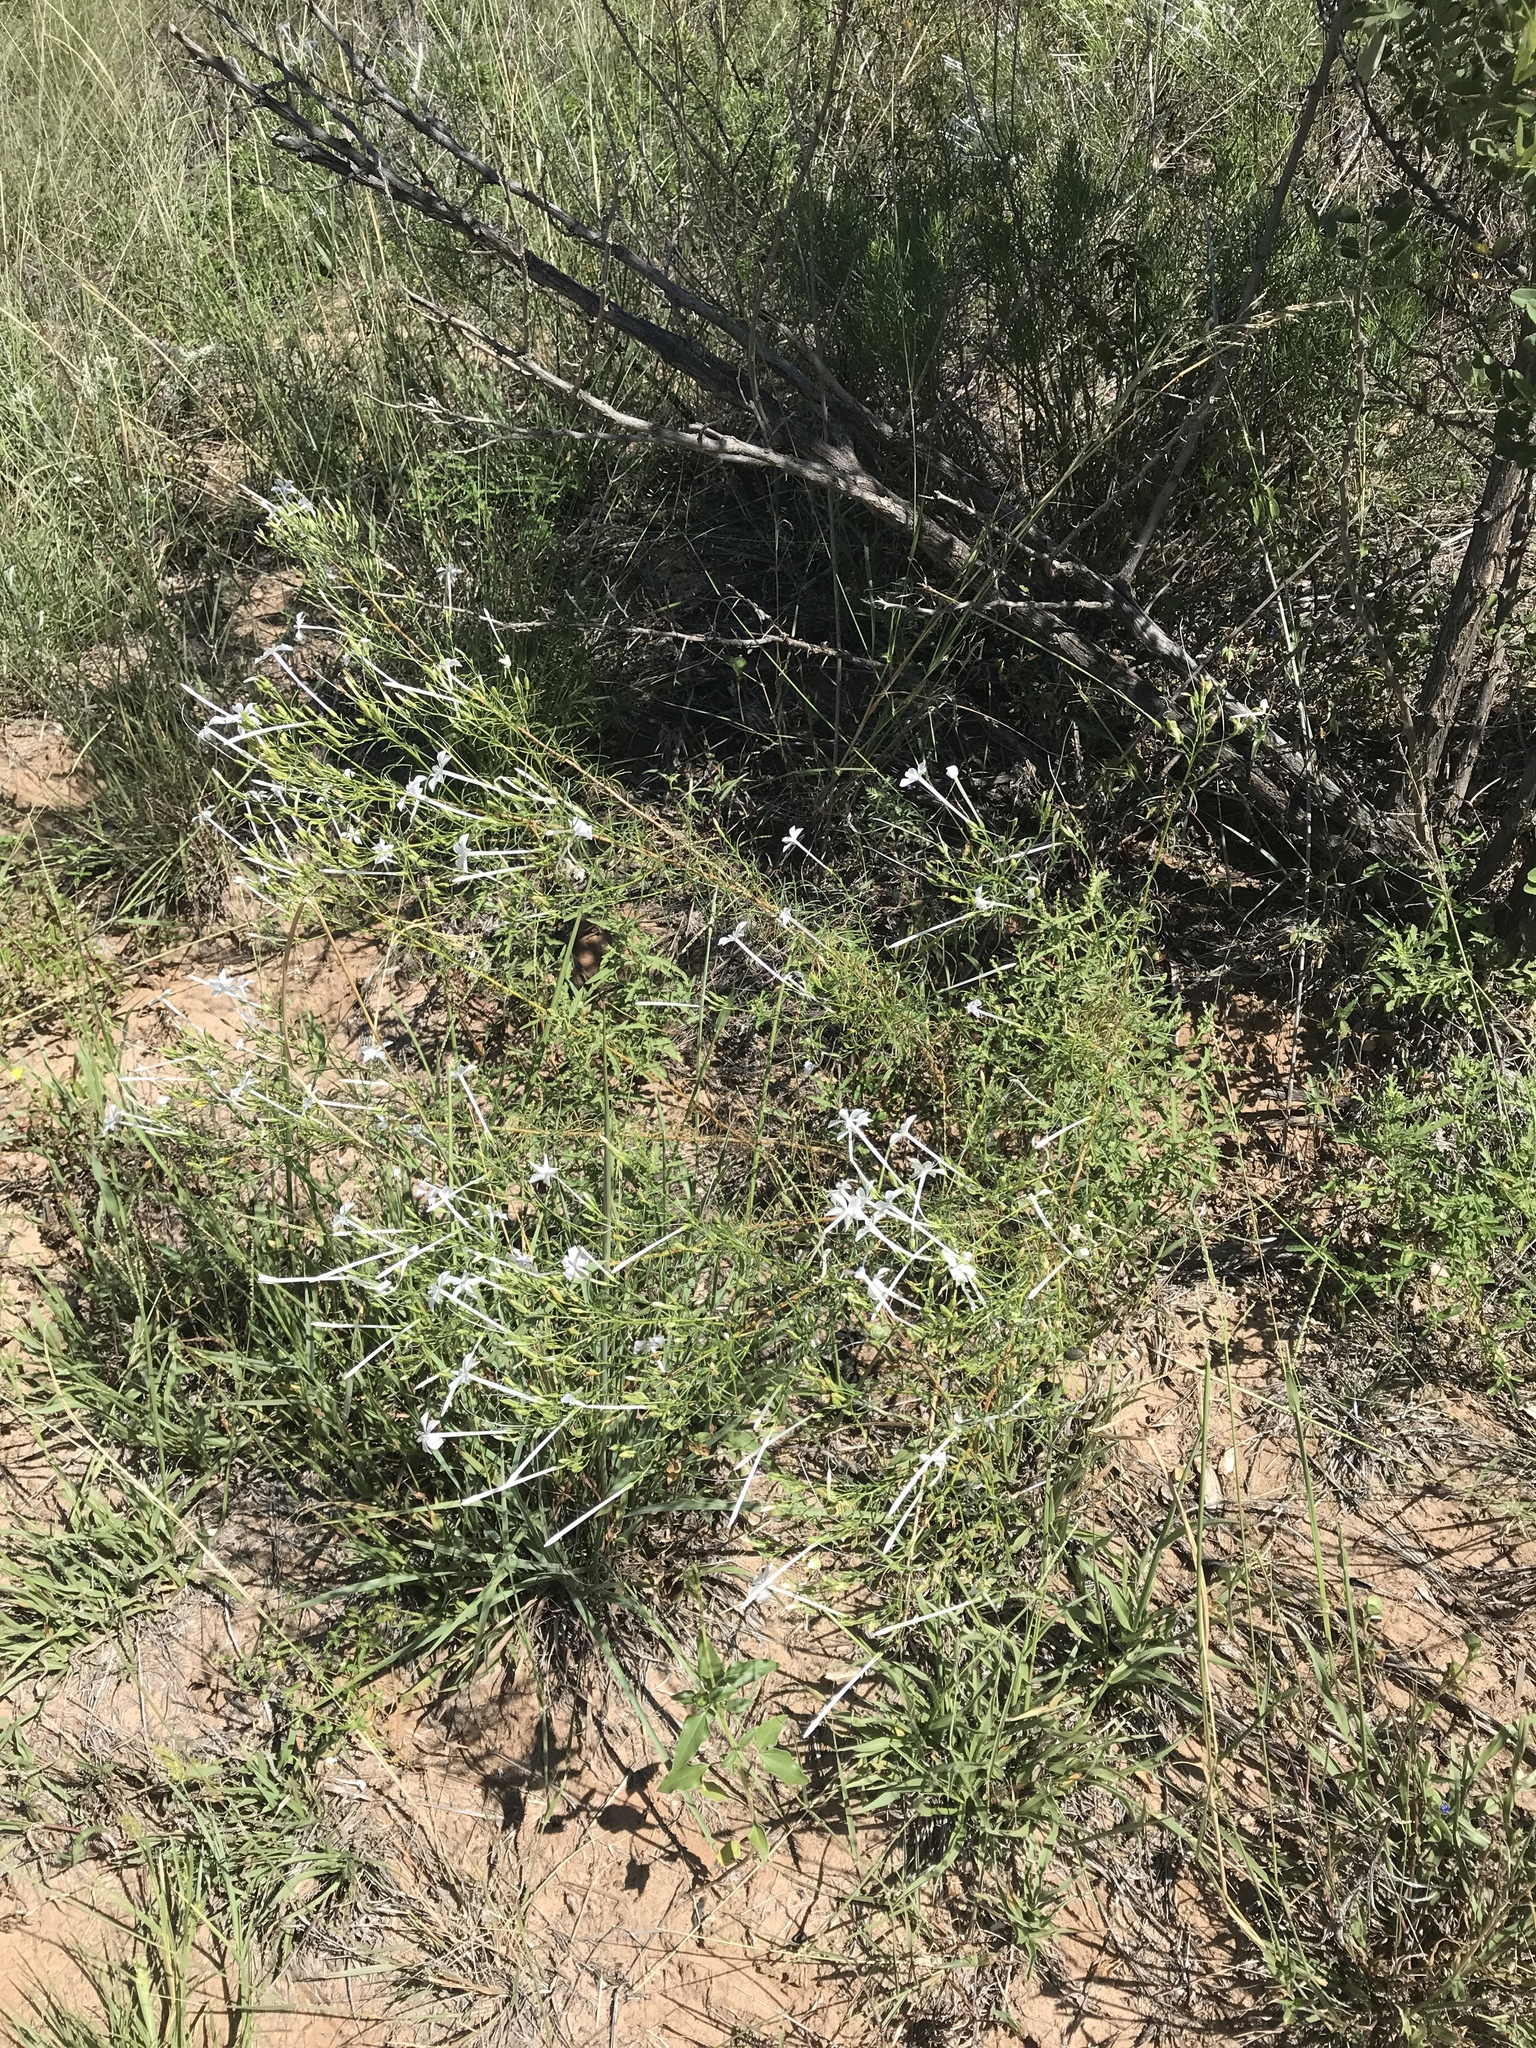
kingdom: Plantae
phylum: Tracheophyta
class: Magnoliopsida
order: Ericales
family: Polemoniaceae
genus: Ipomopsis
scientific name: Ipomopsis longiflora
